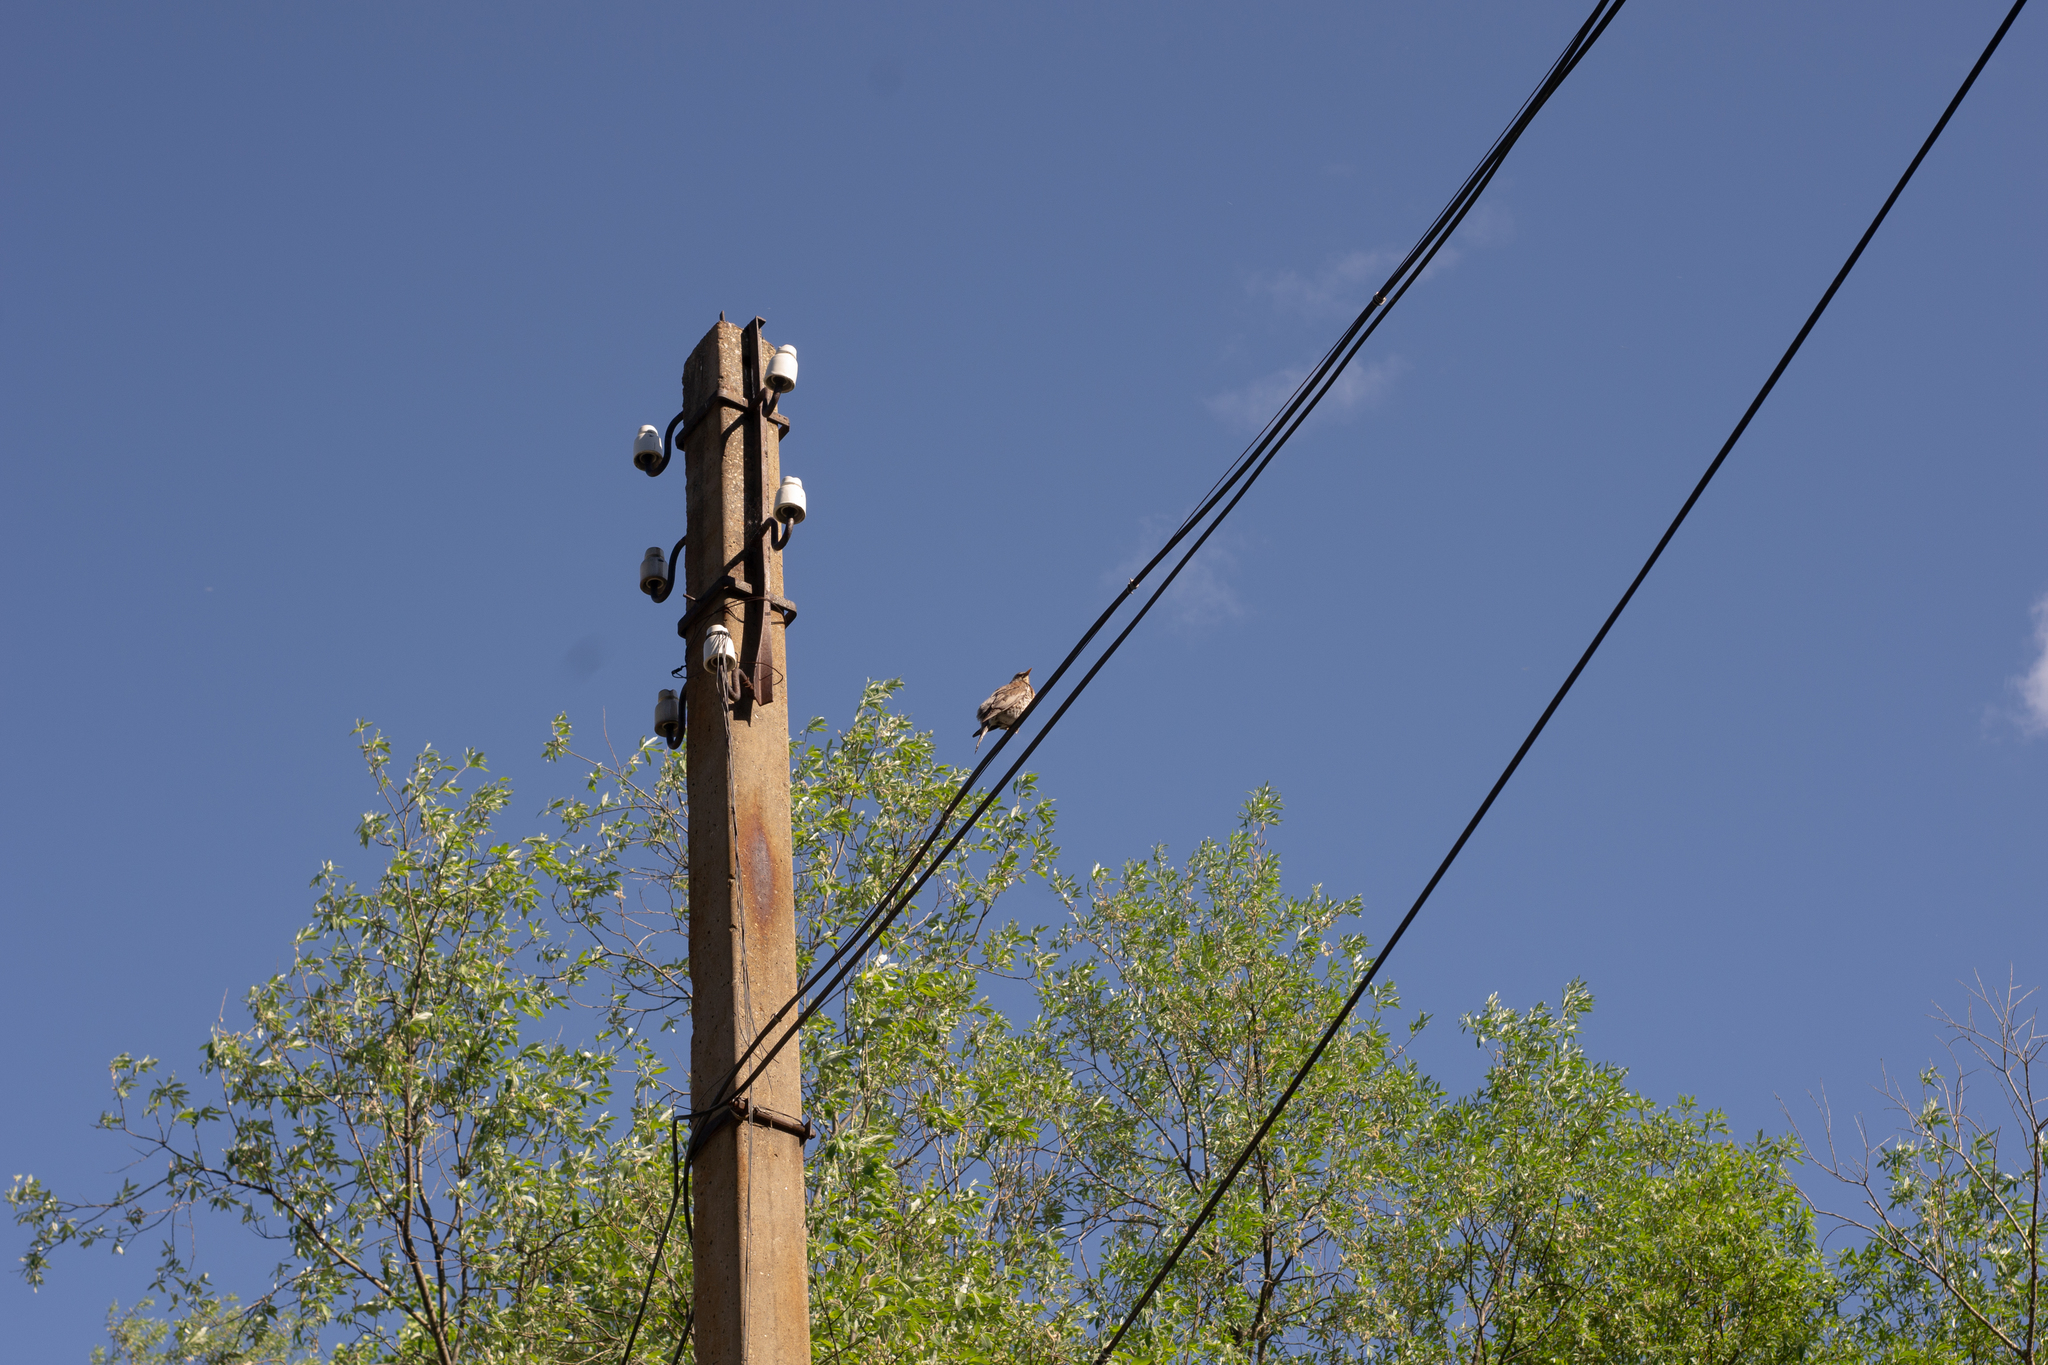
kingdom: Animalia
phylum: Chordata
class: Aves
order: Passeriformes
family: Turdidae
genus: Turdus
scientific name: Turdus pilaris
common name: Fieldfare
